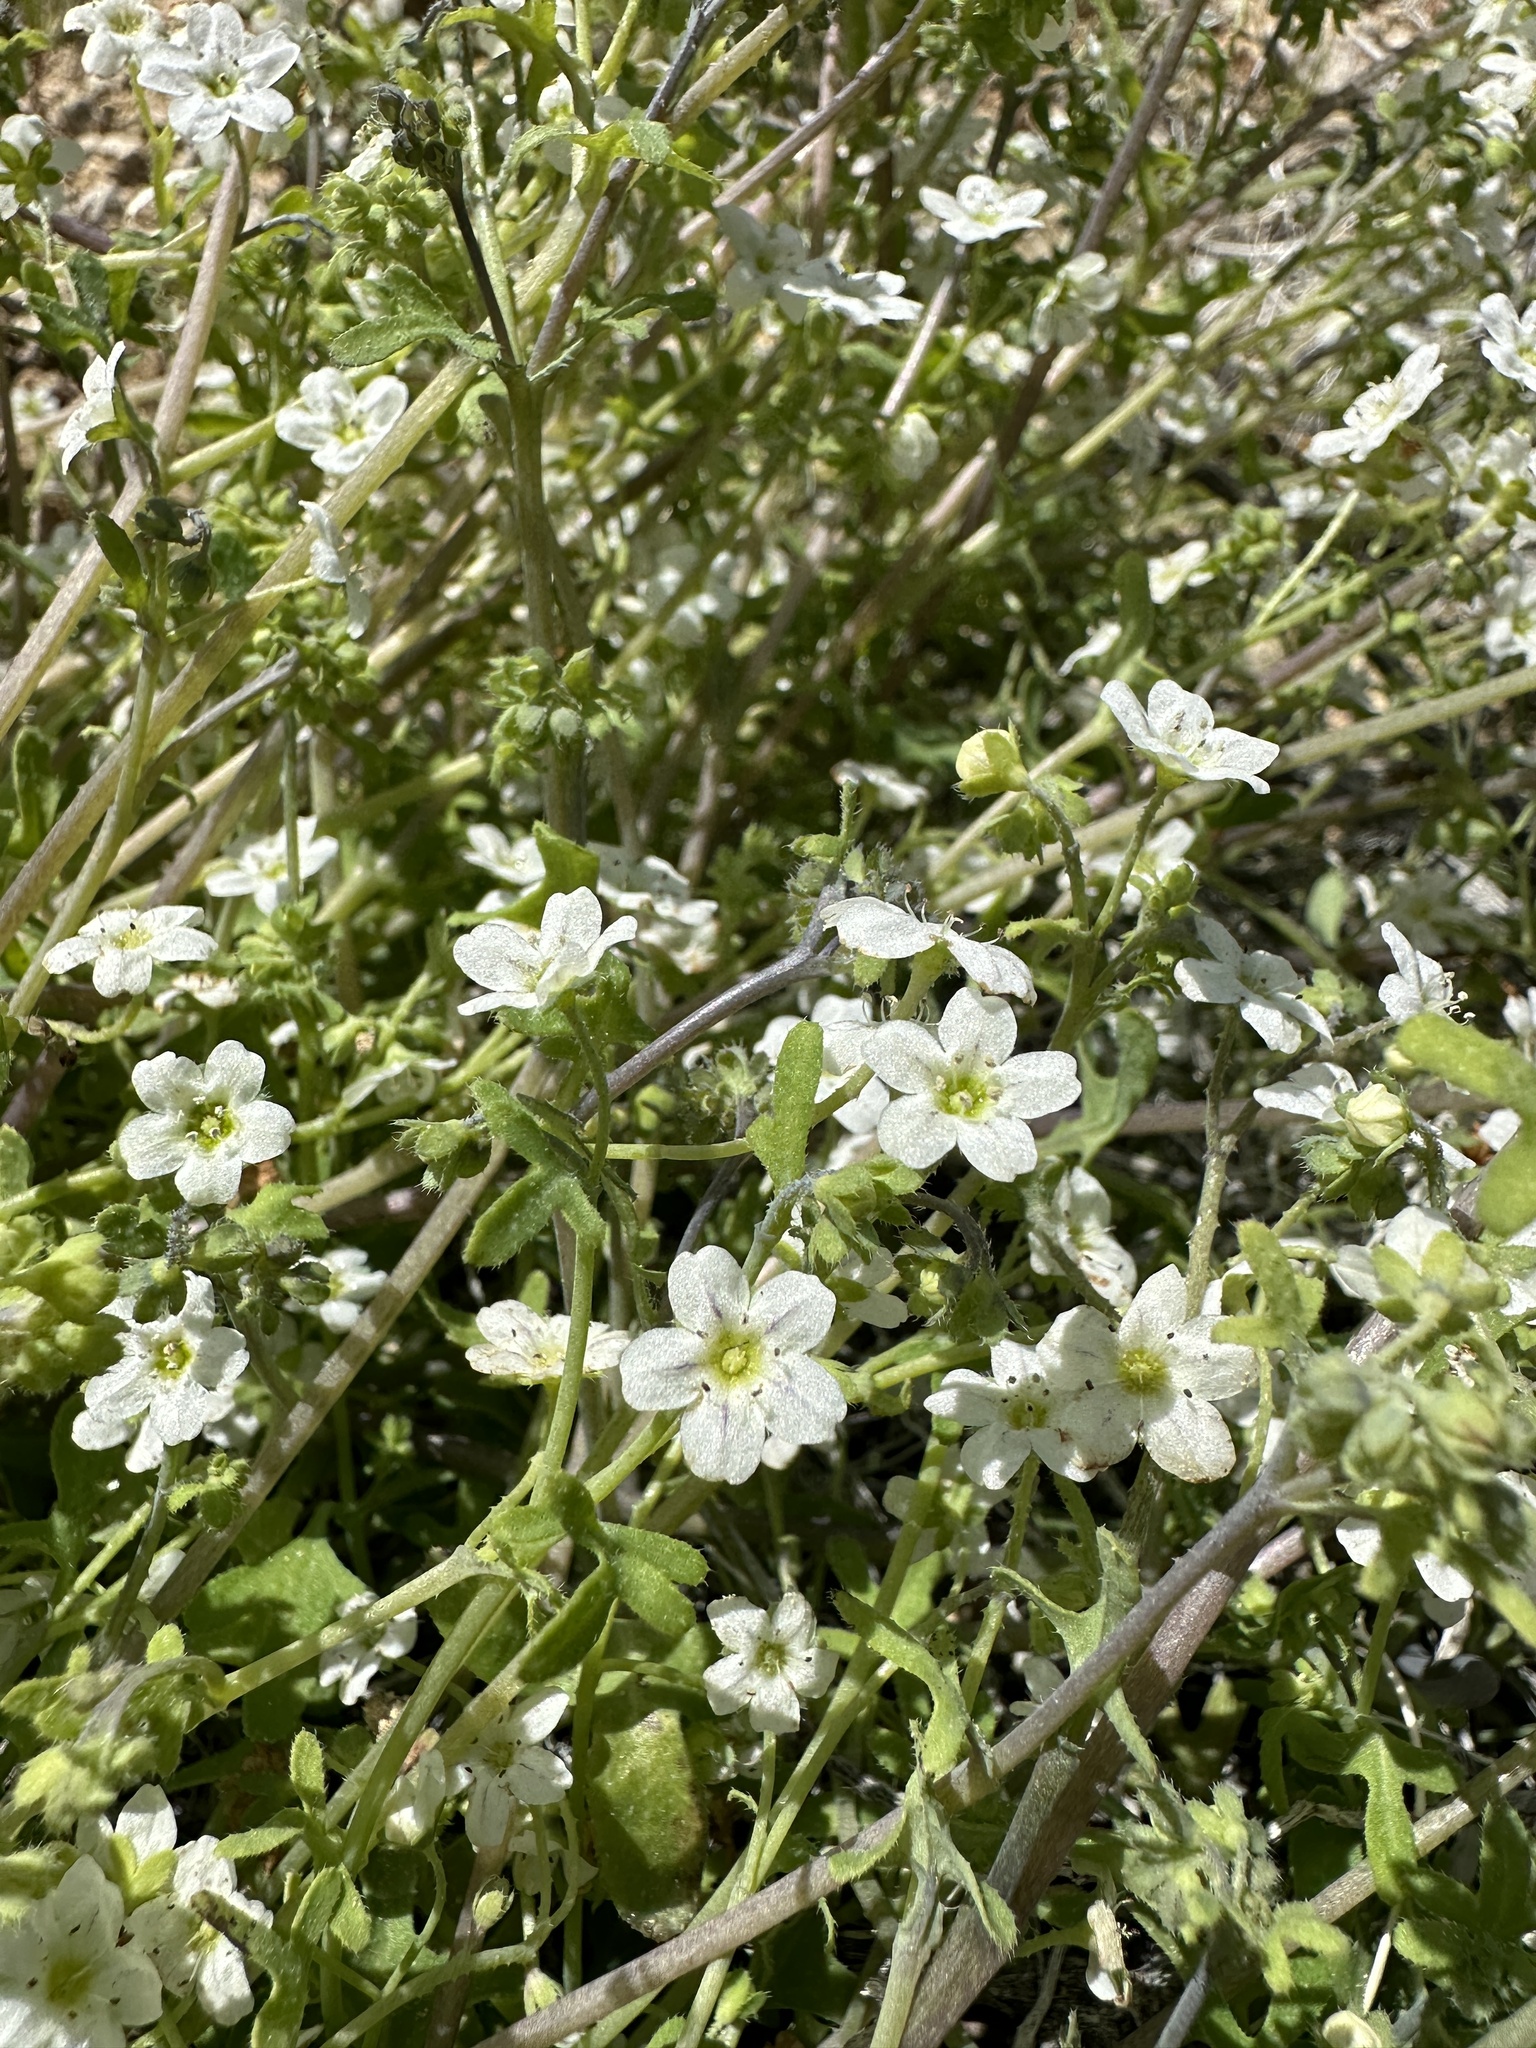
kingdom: Plantae
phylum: Tracheophyta
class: Magnoliopsida
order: Boraginales
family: Hydrophyllaceae
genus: Pholistoma
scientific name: Pholistoma membranaceum
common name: White fiesta-flower
